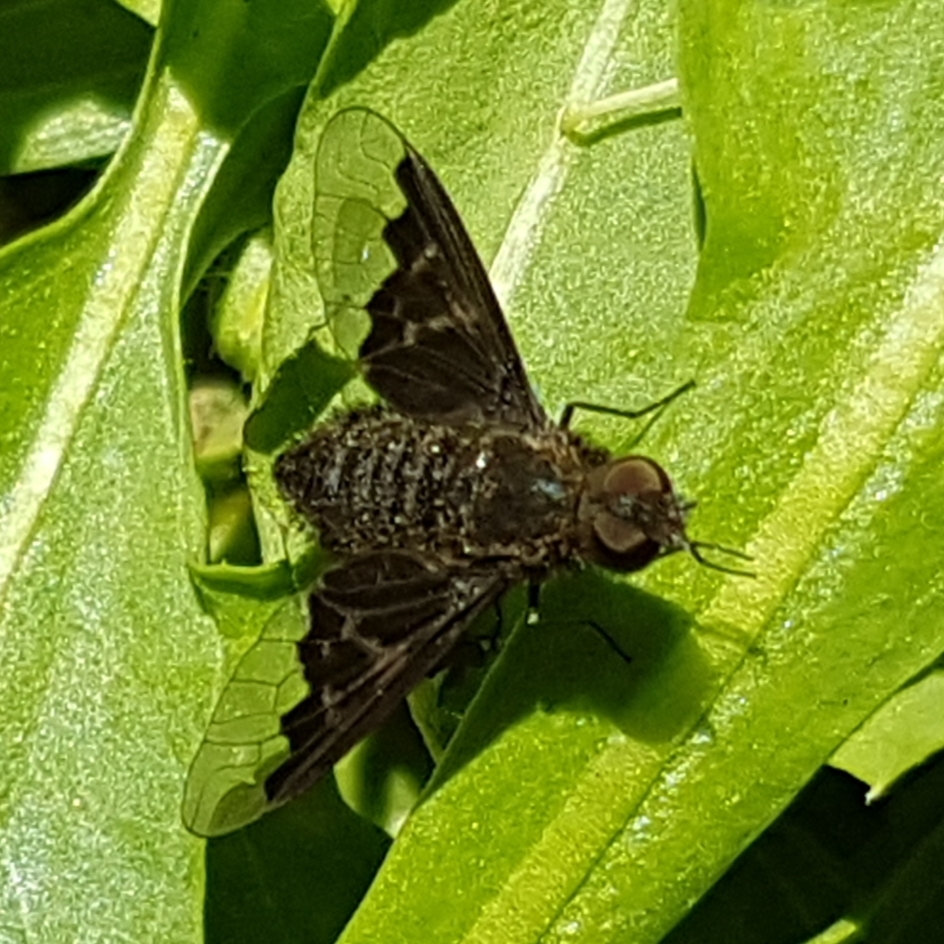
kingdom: Animalia
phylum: Arthropoda
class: Insecta
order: Diptera
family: Bombyliidae
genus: Hemipenthes
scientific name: Hemipenthes morio
